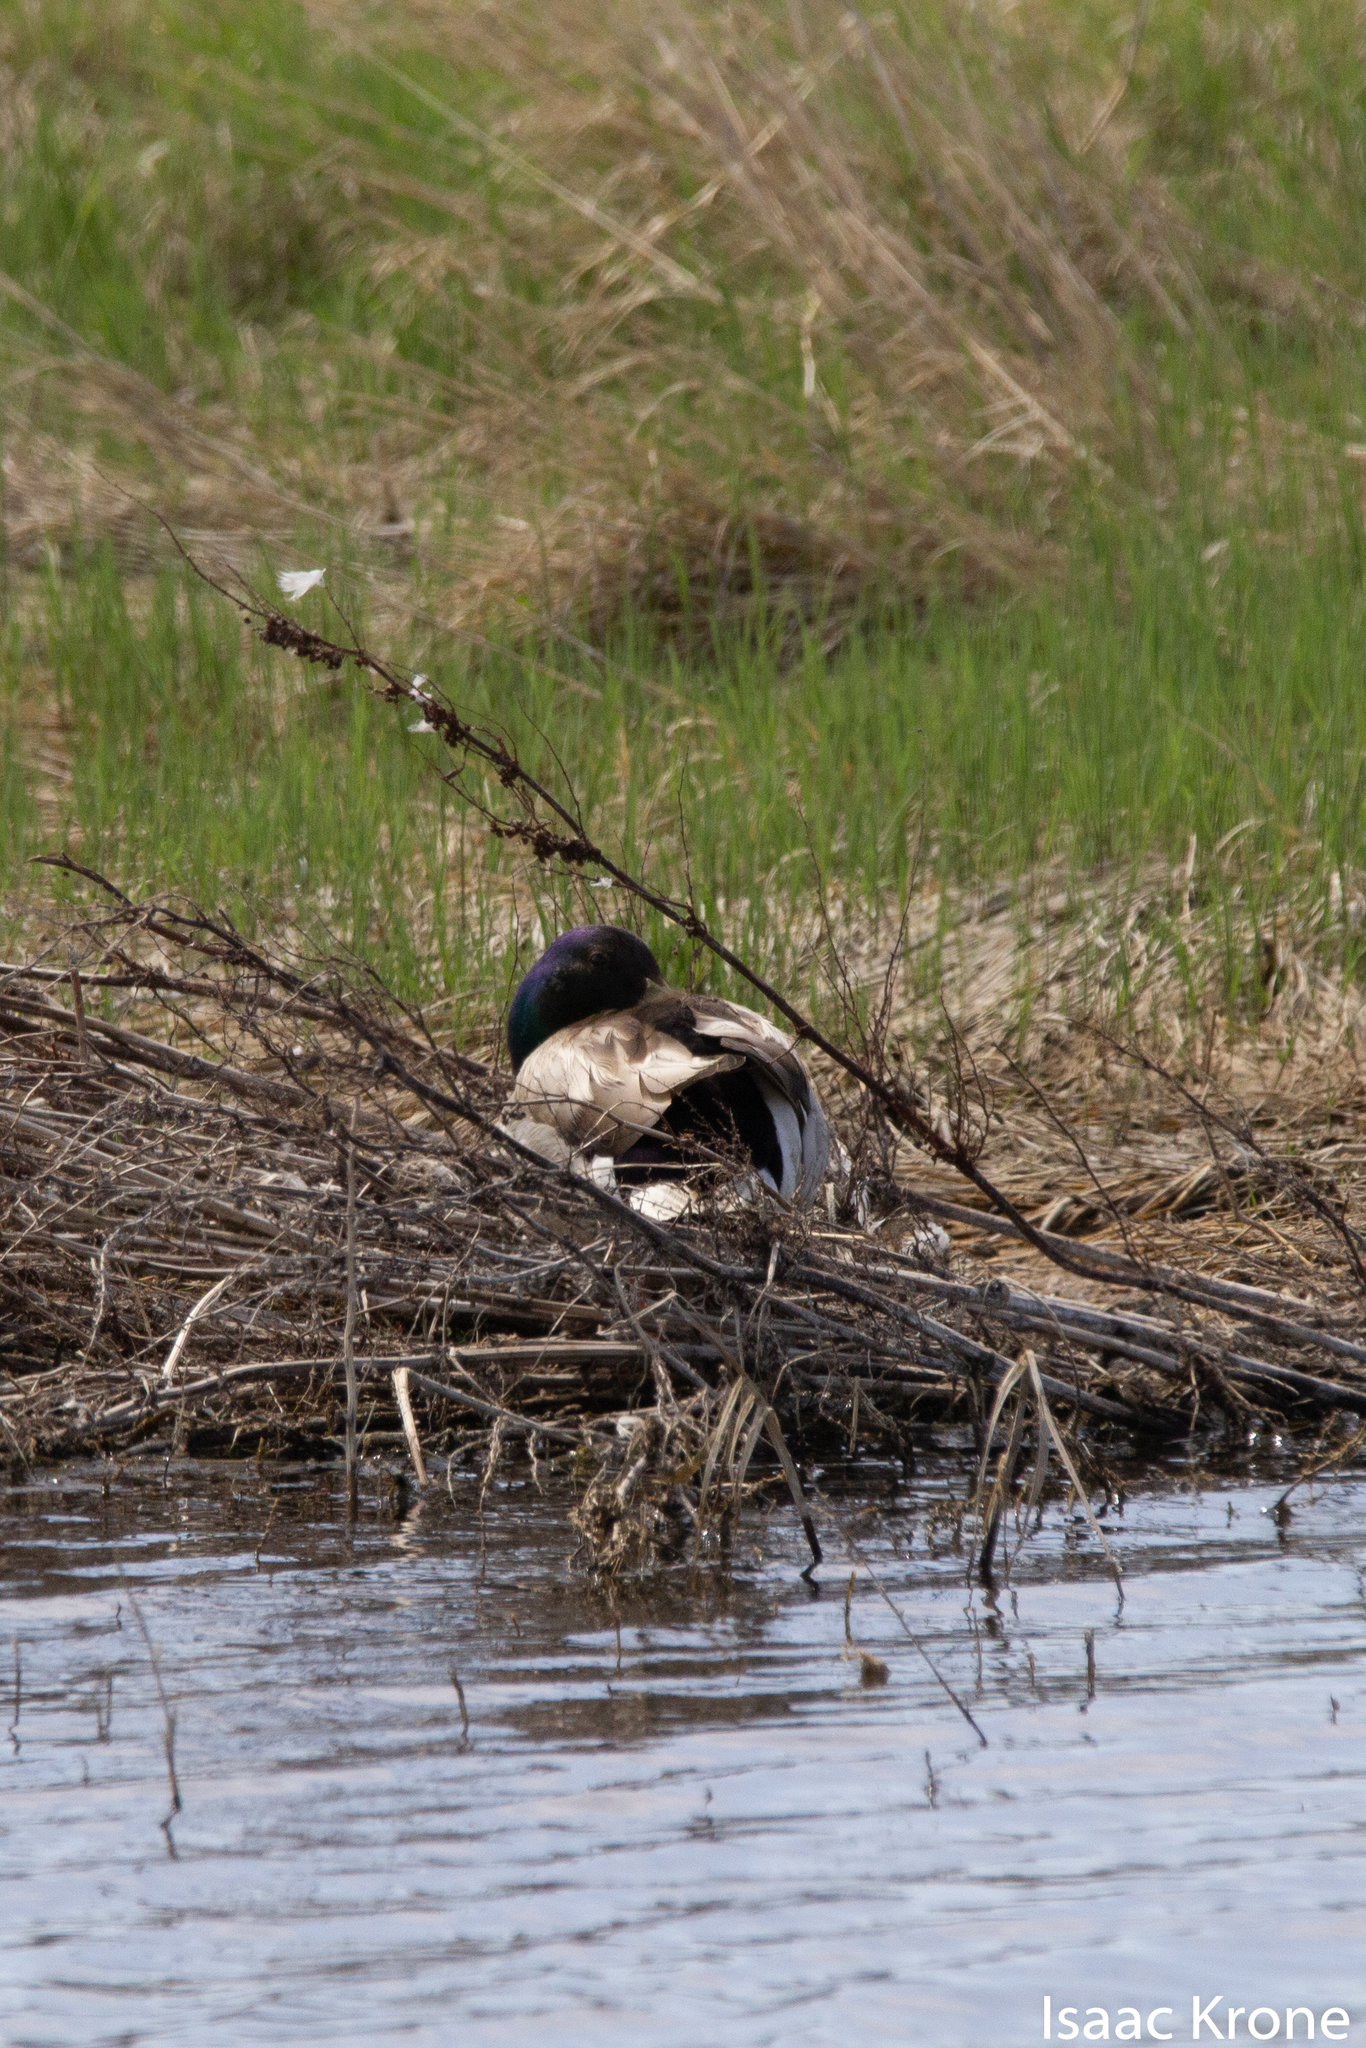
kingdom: Animalia
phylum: Chordata
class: Aves
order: Anseriformes
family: Anatidae
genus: Anas
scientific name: Anas platyrhynchos
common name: Mallard
